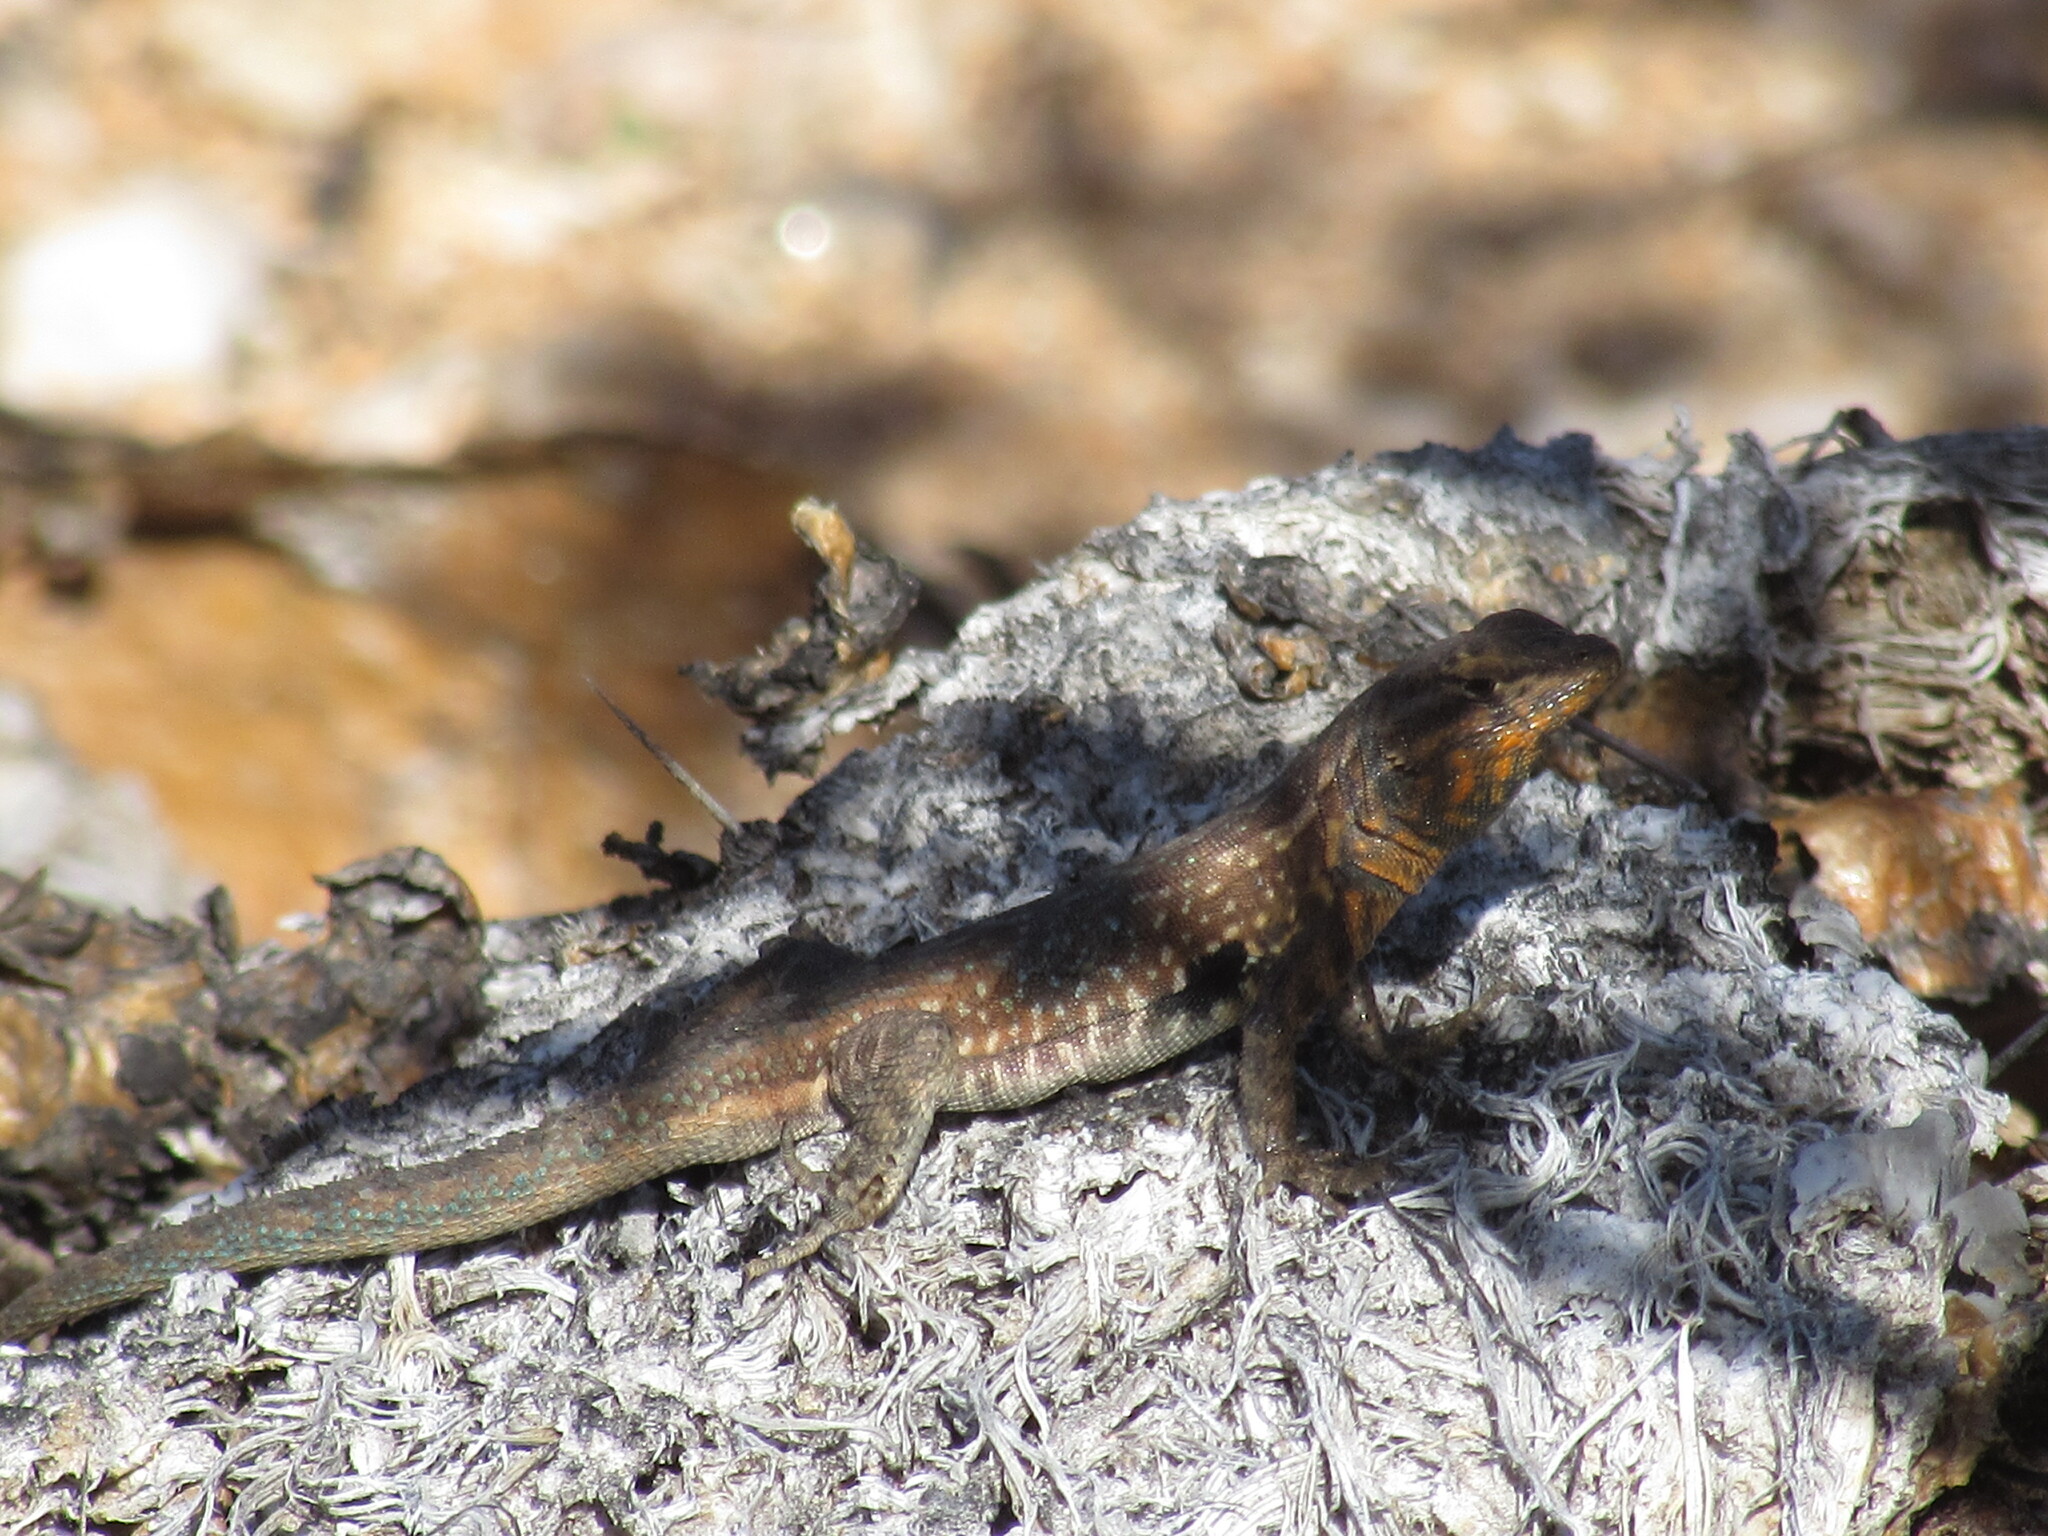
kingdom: Animalia
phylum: Chordata
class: Squamata
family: Phrynosomatidae
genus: Uta
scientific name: Uta stansburiana
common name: Side-blotched lizard
